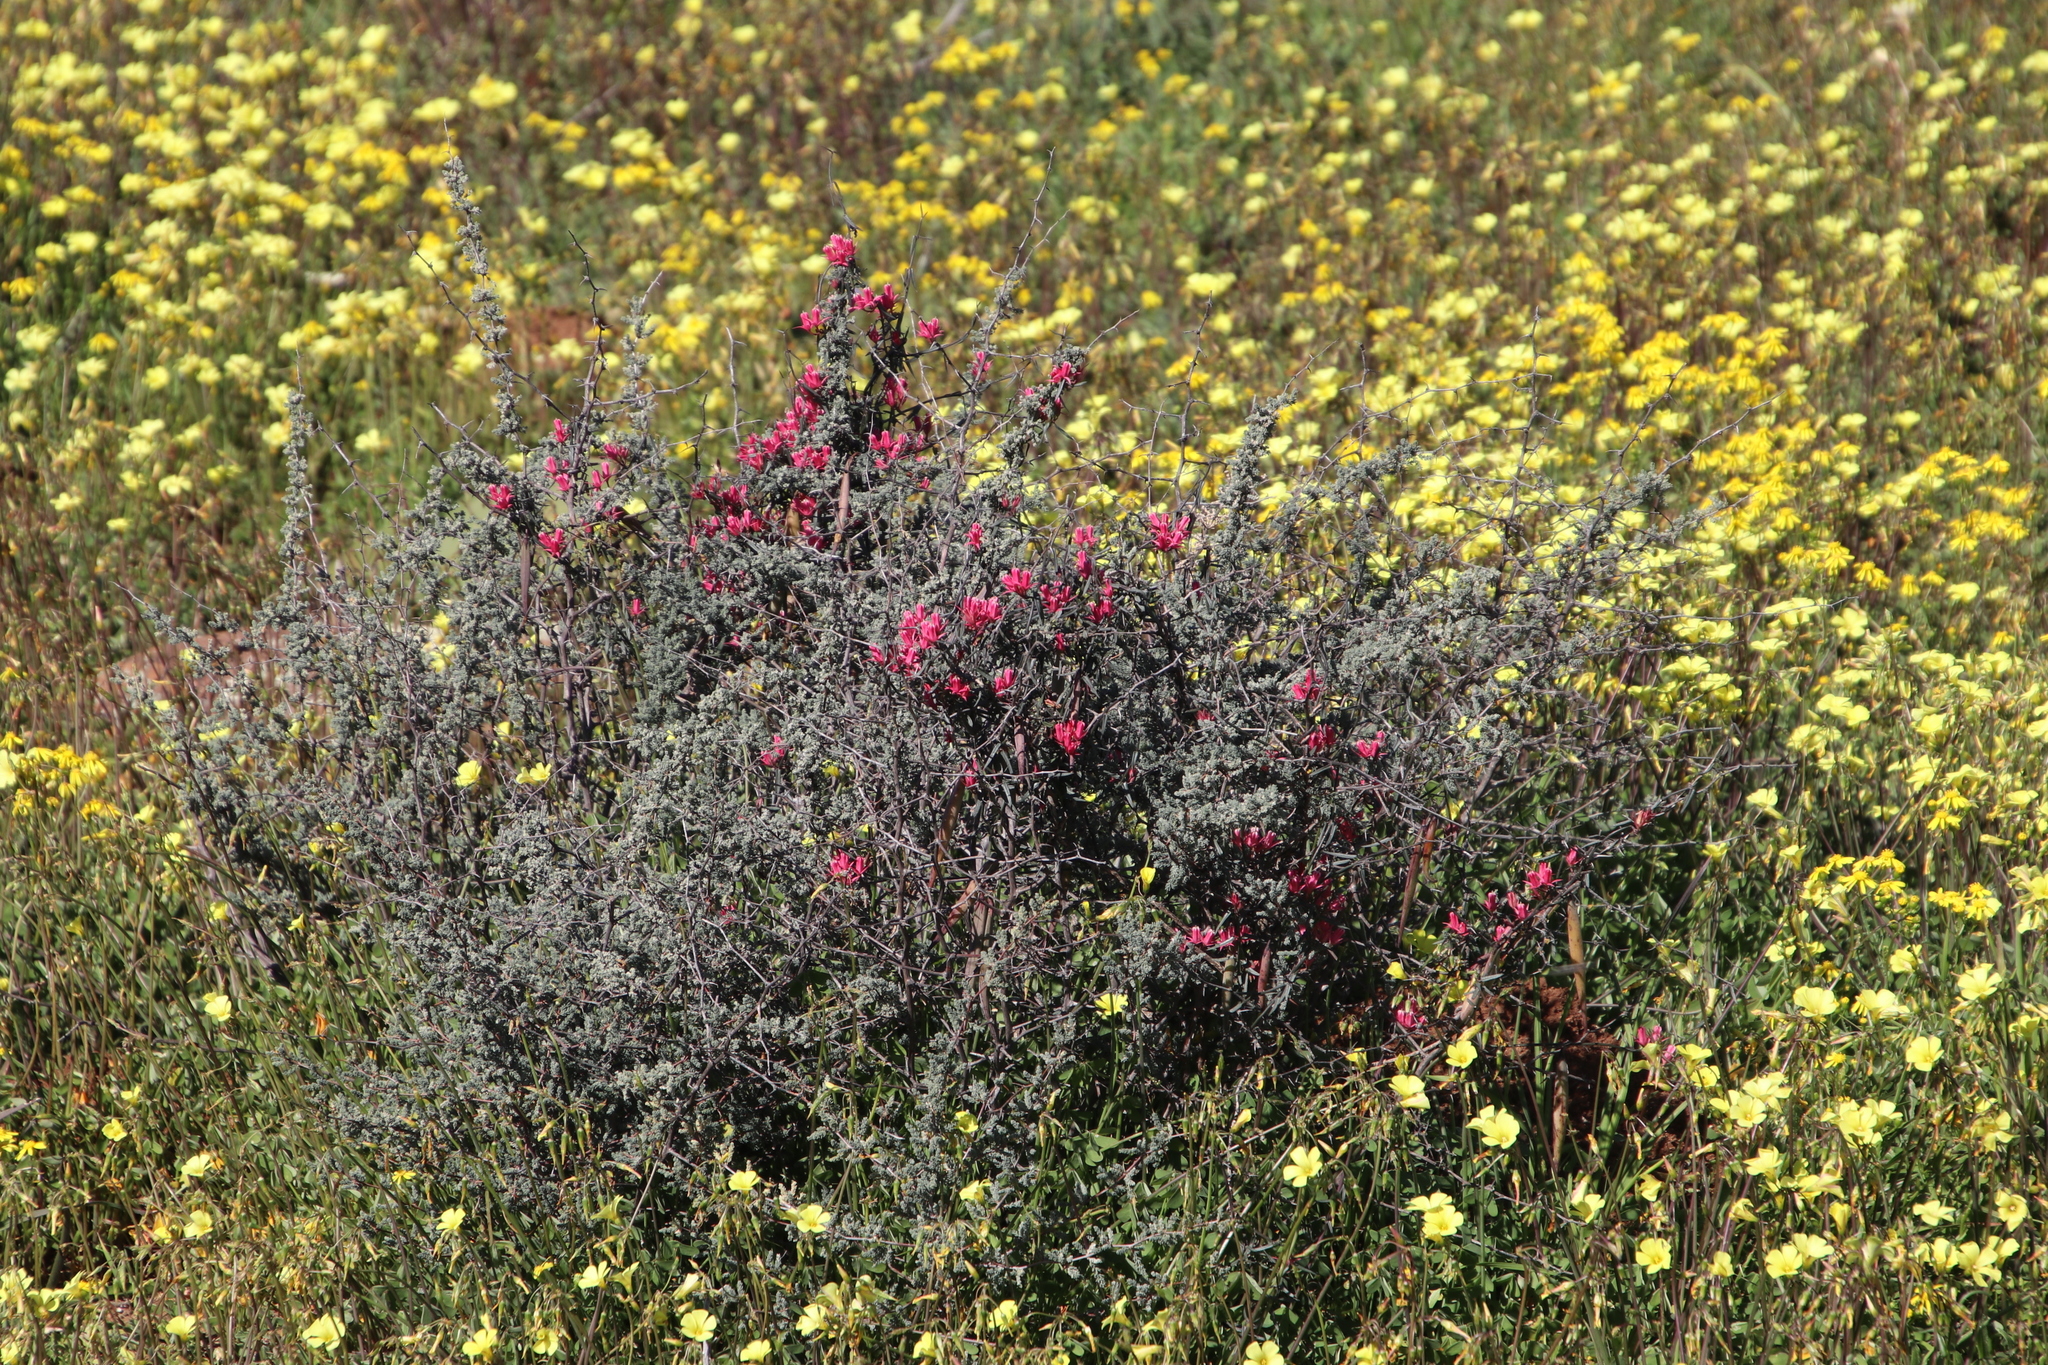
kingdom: Plantae
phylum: Tracheophyta
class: Magnoliopsida
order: Gentianales
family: Apocynaceae
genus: Microloma
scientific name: Microloma sagittatum
